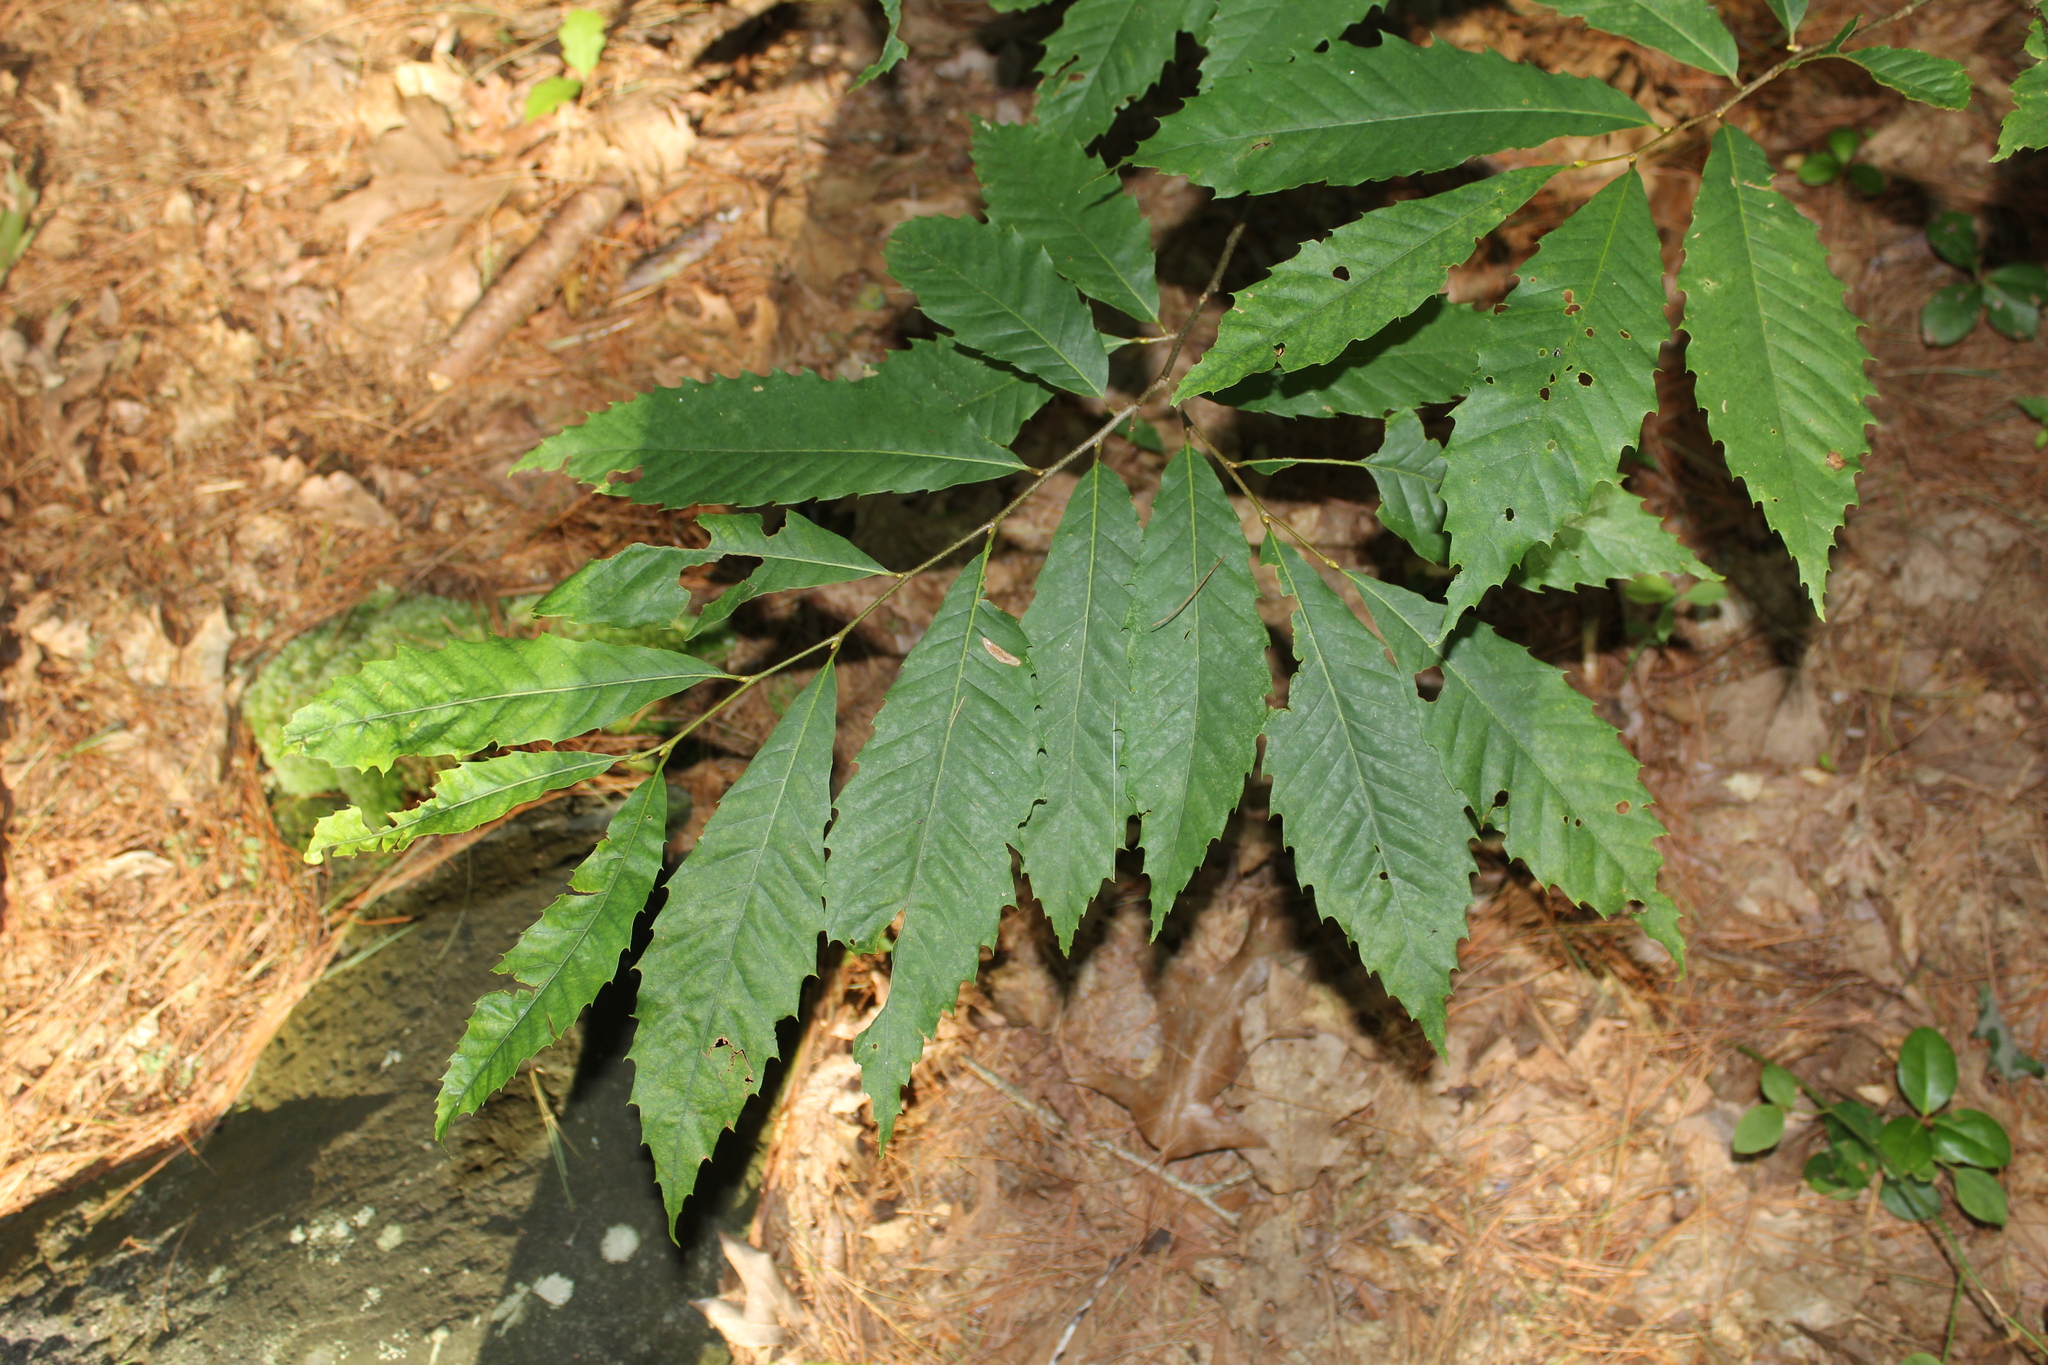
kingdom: Plantae
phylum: Tracheophyta
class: Magnoliopsida
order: Fagales
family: Fagaceae
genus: Castanea
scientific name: Castanea dentata
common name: American chestnut
